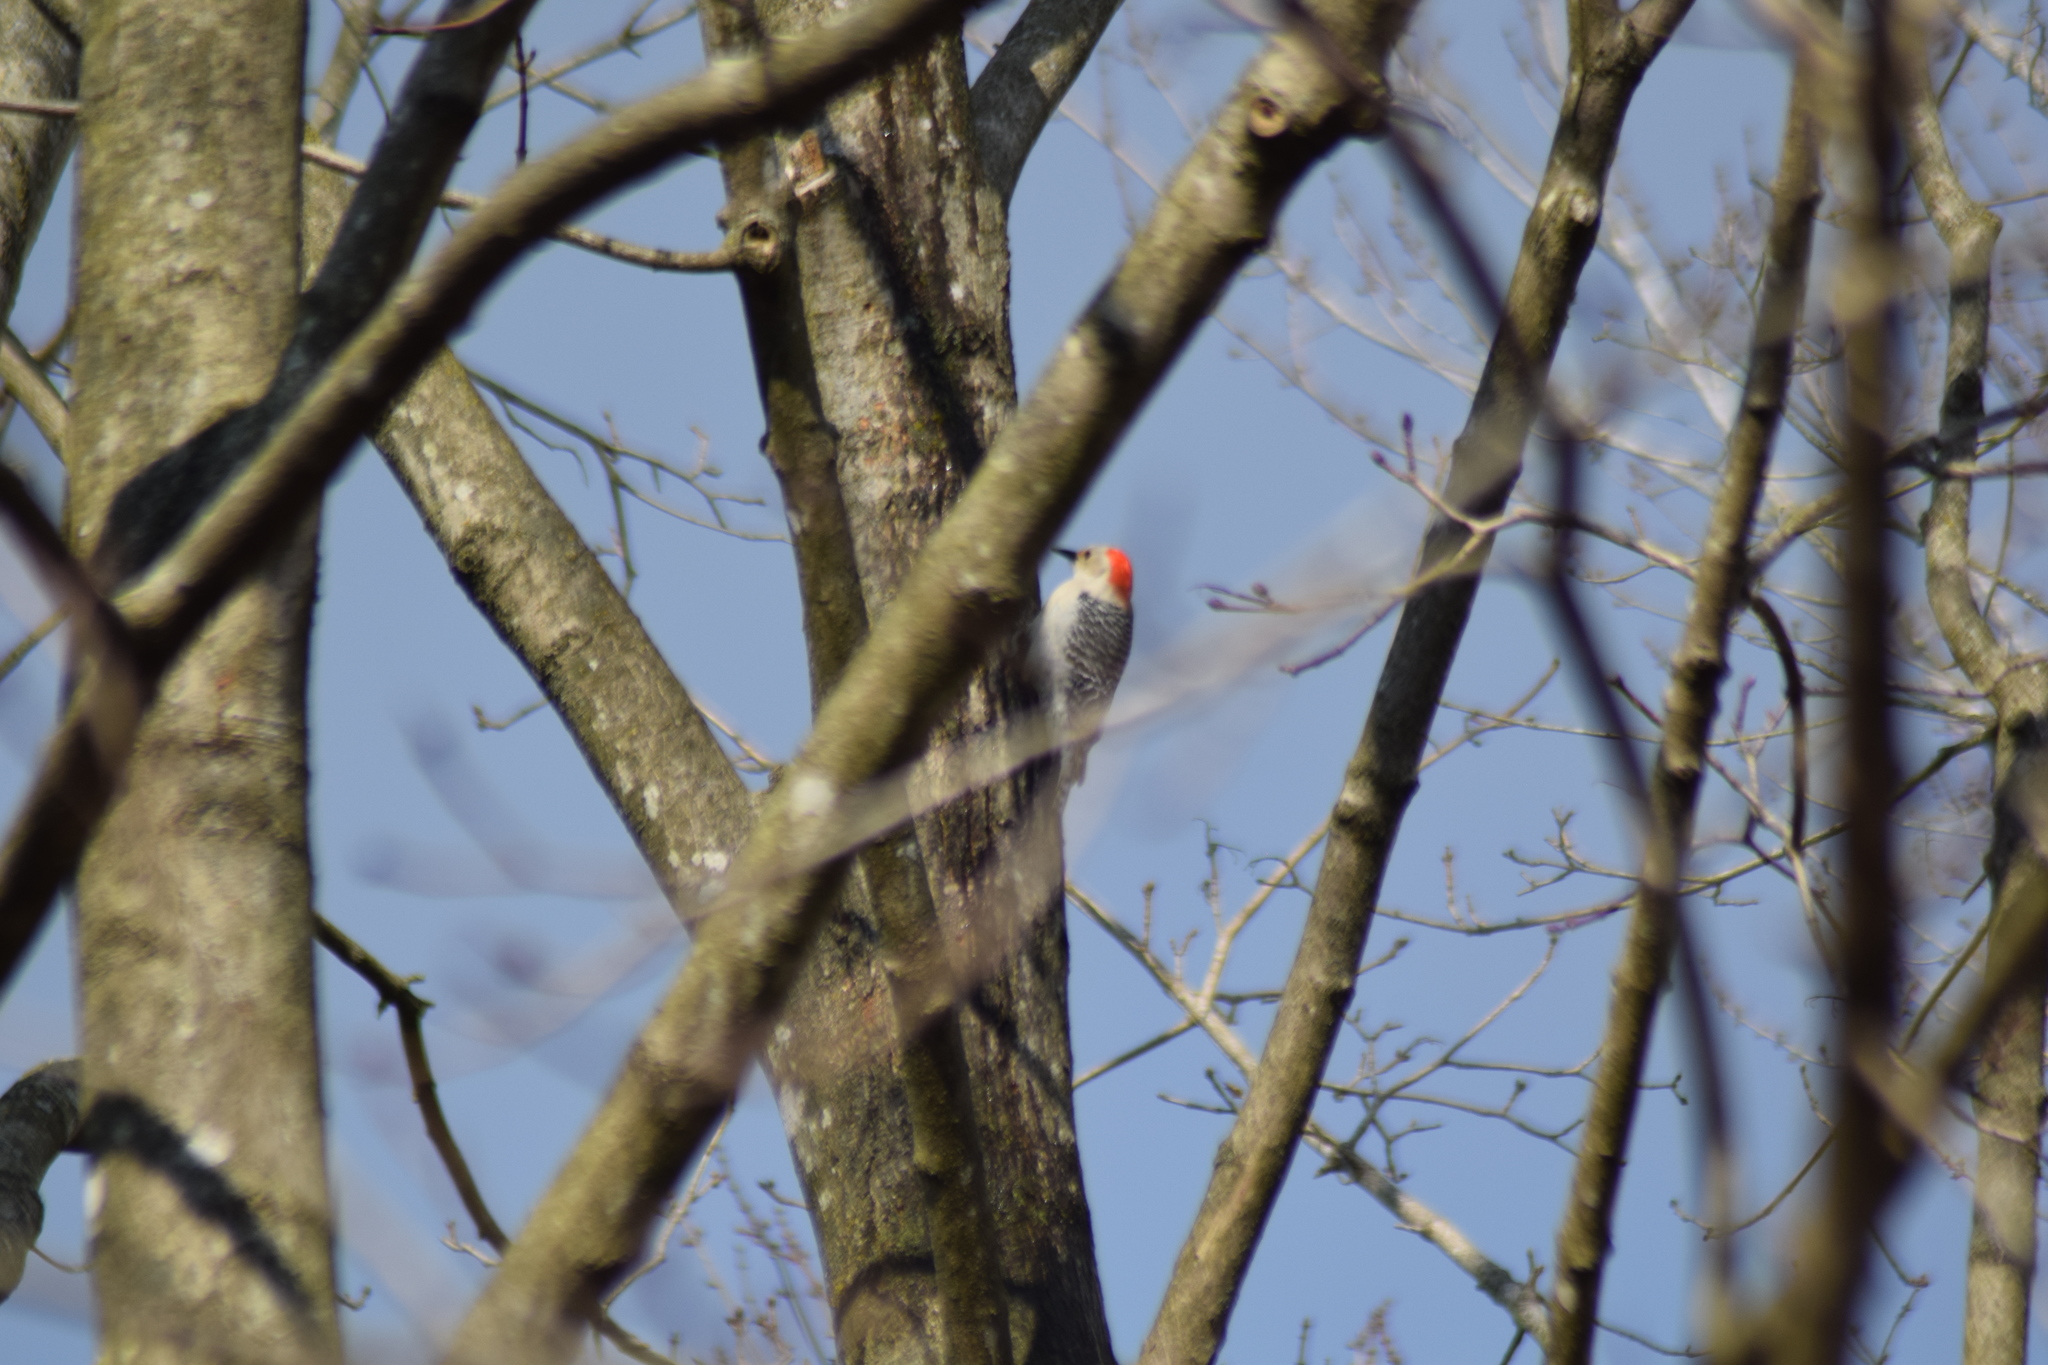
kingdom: Animalia
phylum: Chordata
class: Aves
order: Piciformes
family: Picidae
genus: Melanerpes
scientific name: Melanerpes carolinus
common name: Red-bellied woodpecker
